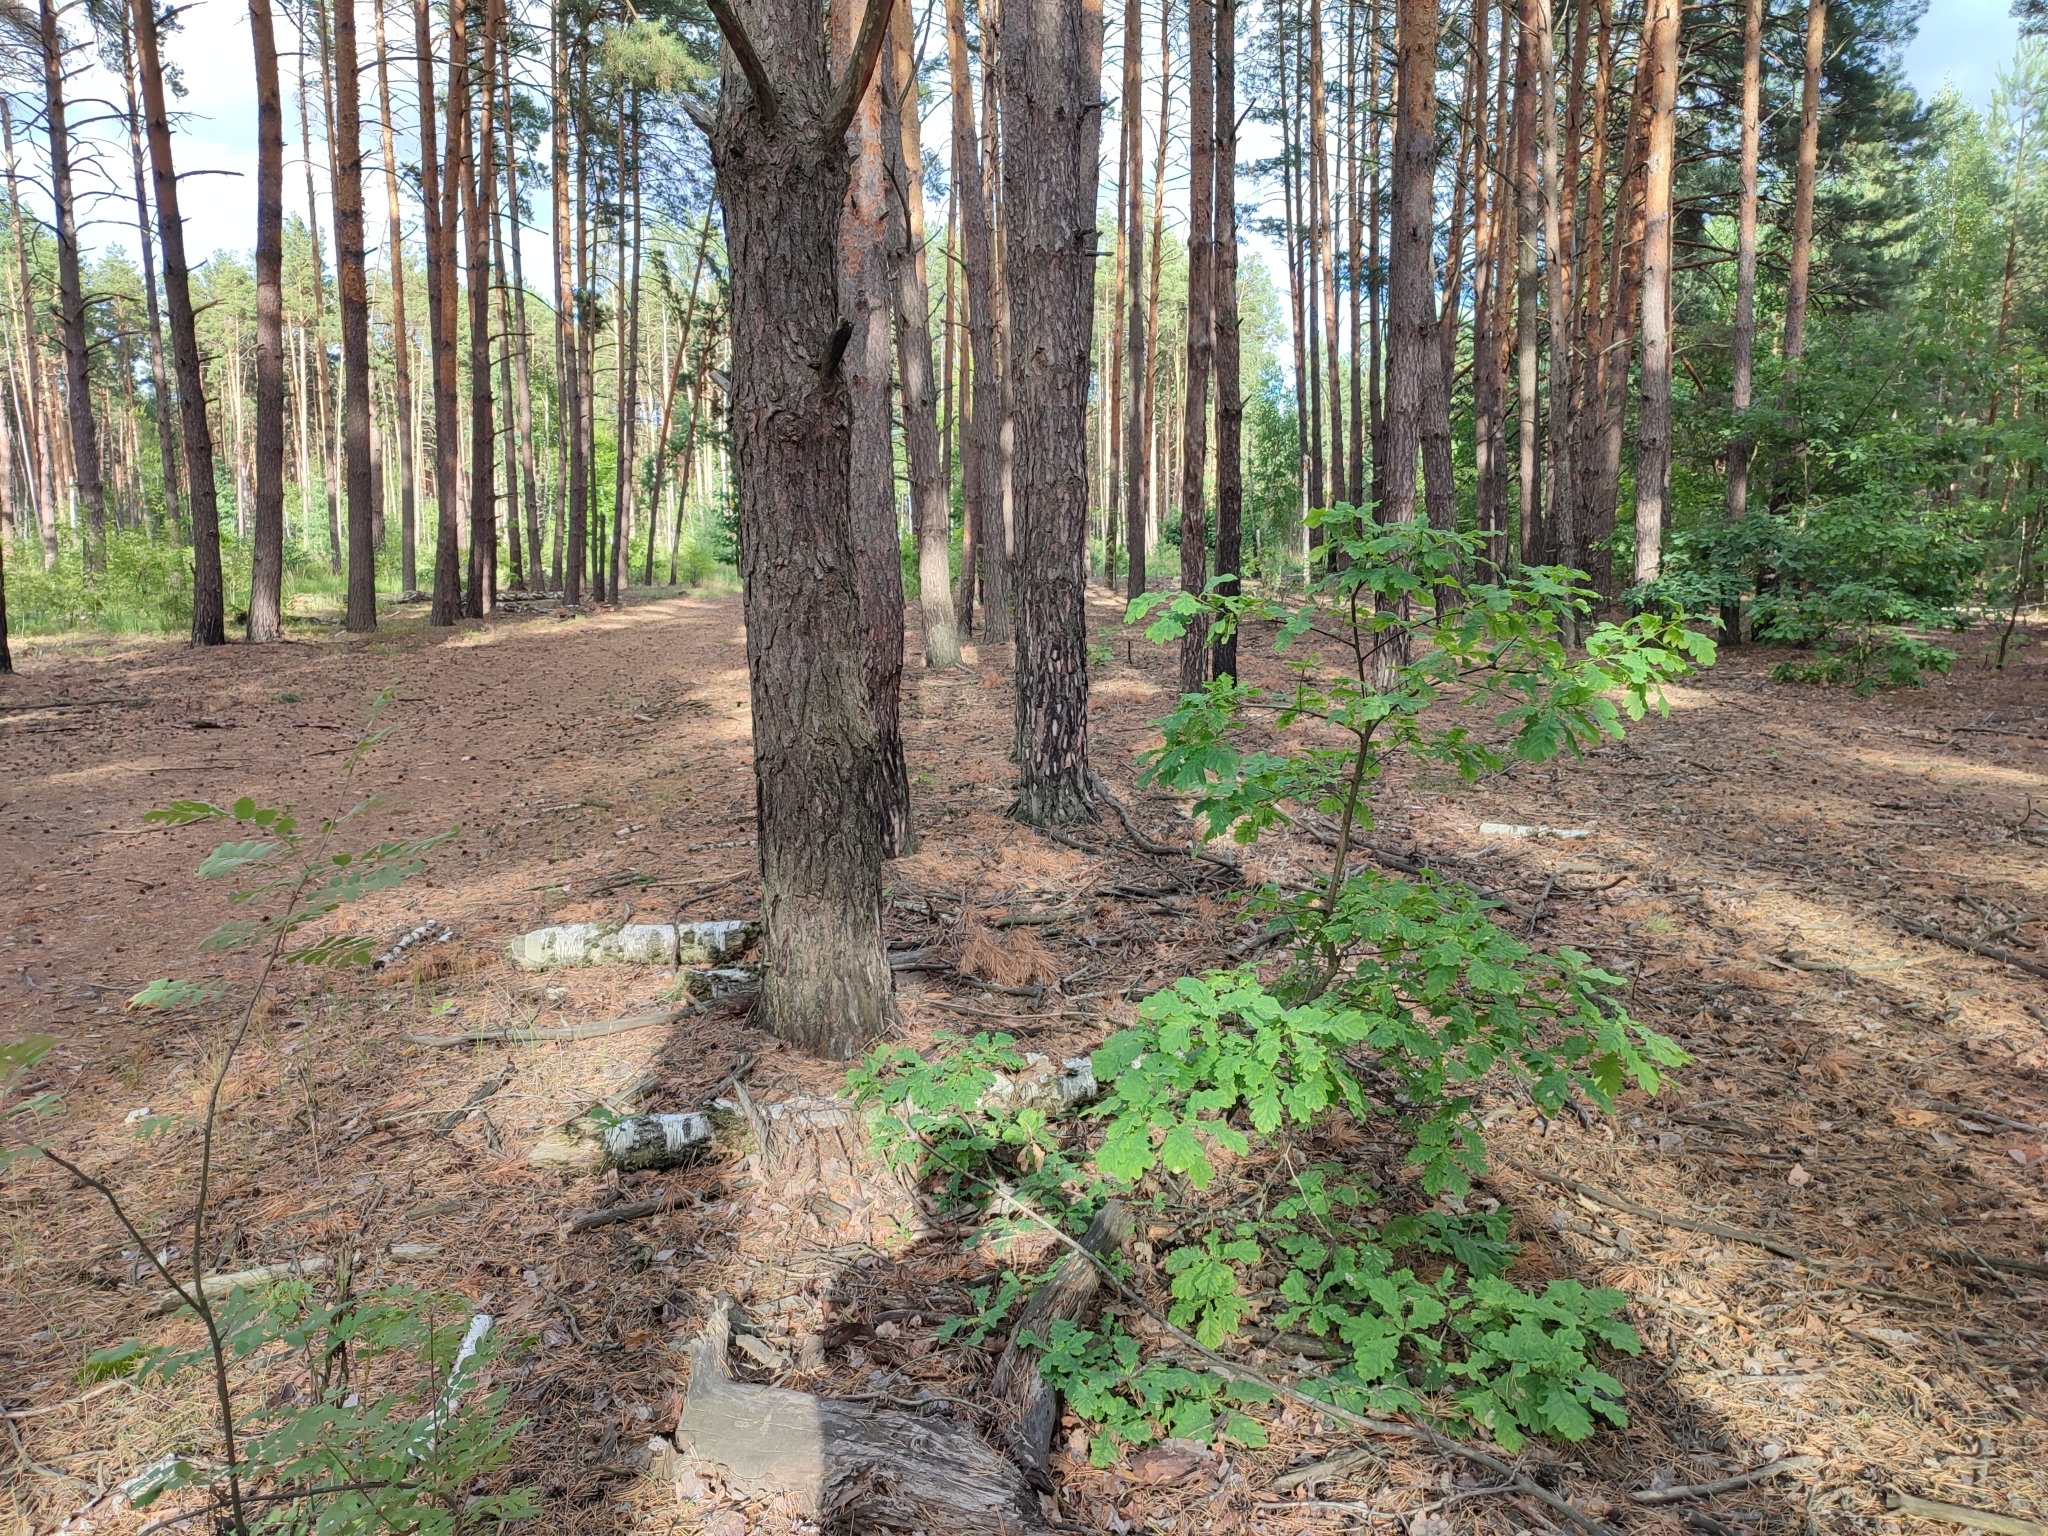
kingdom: Plantae
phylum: Tracheophyta
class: Magnoliopsida
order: Fagales
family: Fagaceae
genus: Quercus
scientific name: Quercus robur
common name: Pedunculate oak
